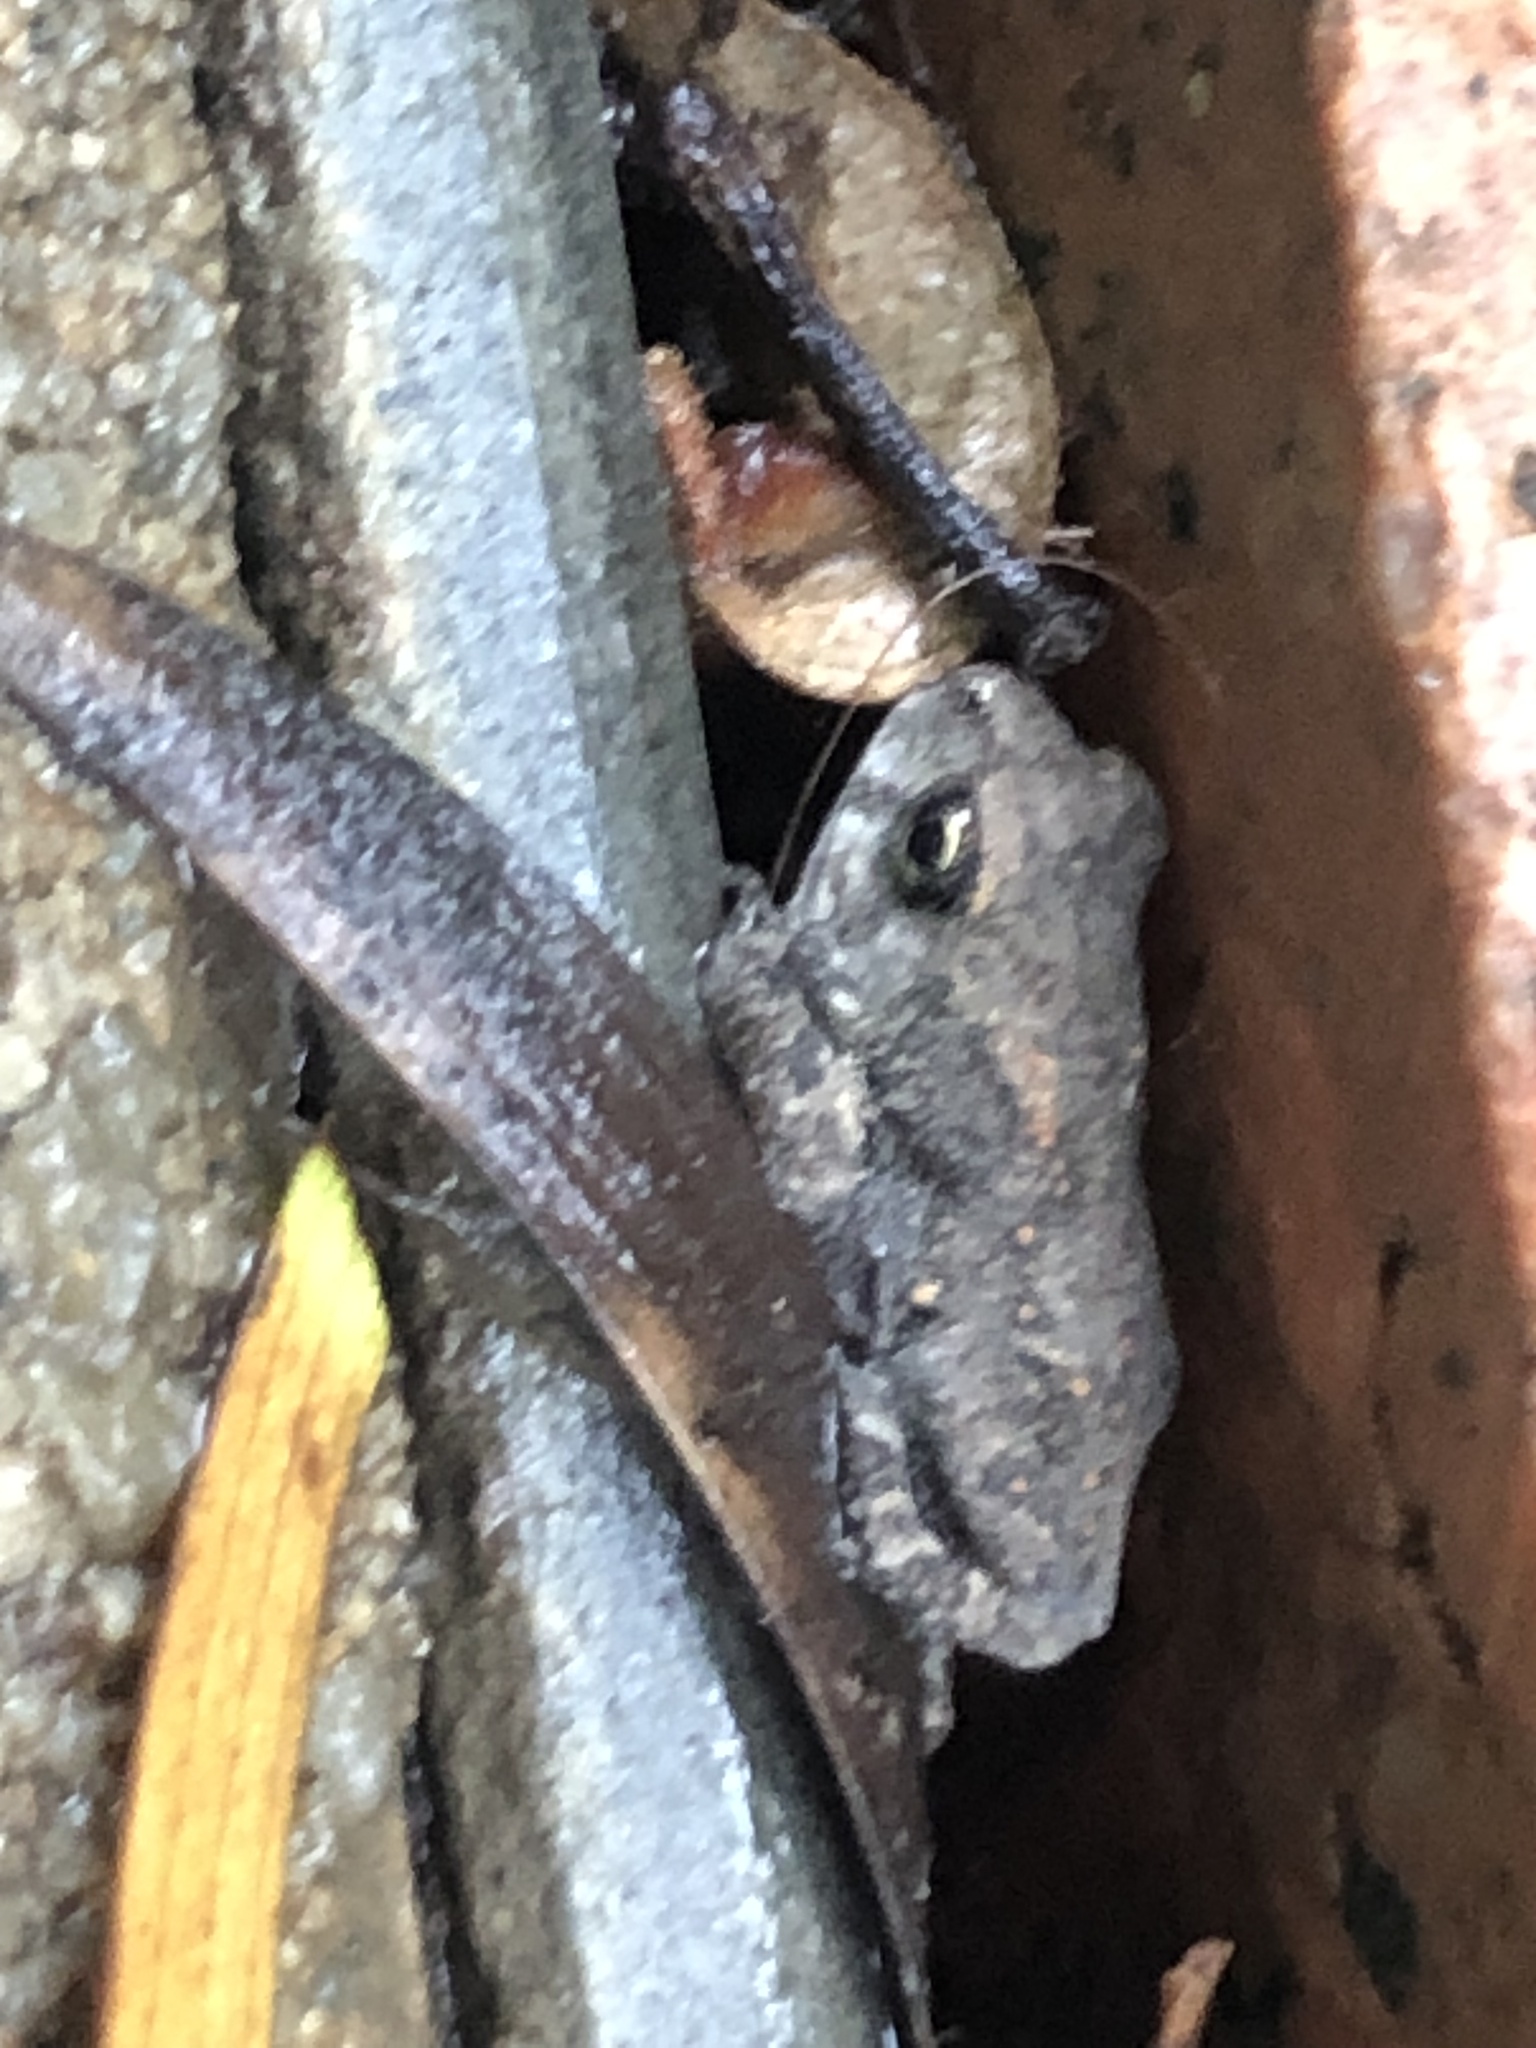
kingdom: Animalia
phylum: Chordata
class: Amphibia
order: Anura
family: Bufonidae
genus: Duttaphrynus
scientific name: Duttaphrynus melanostictus
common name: Common sunda toad
